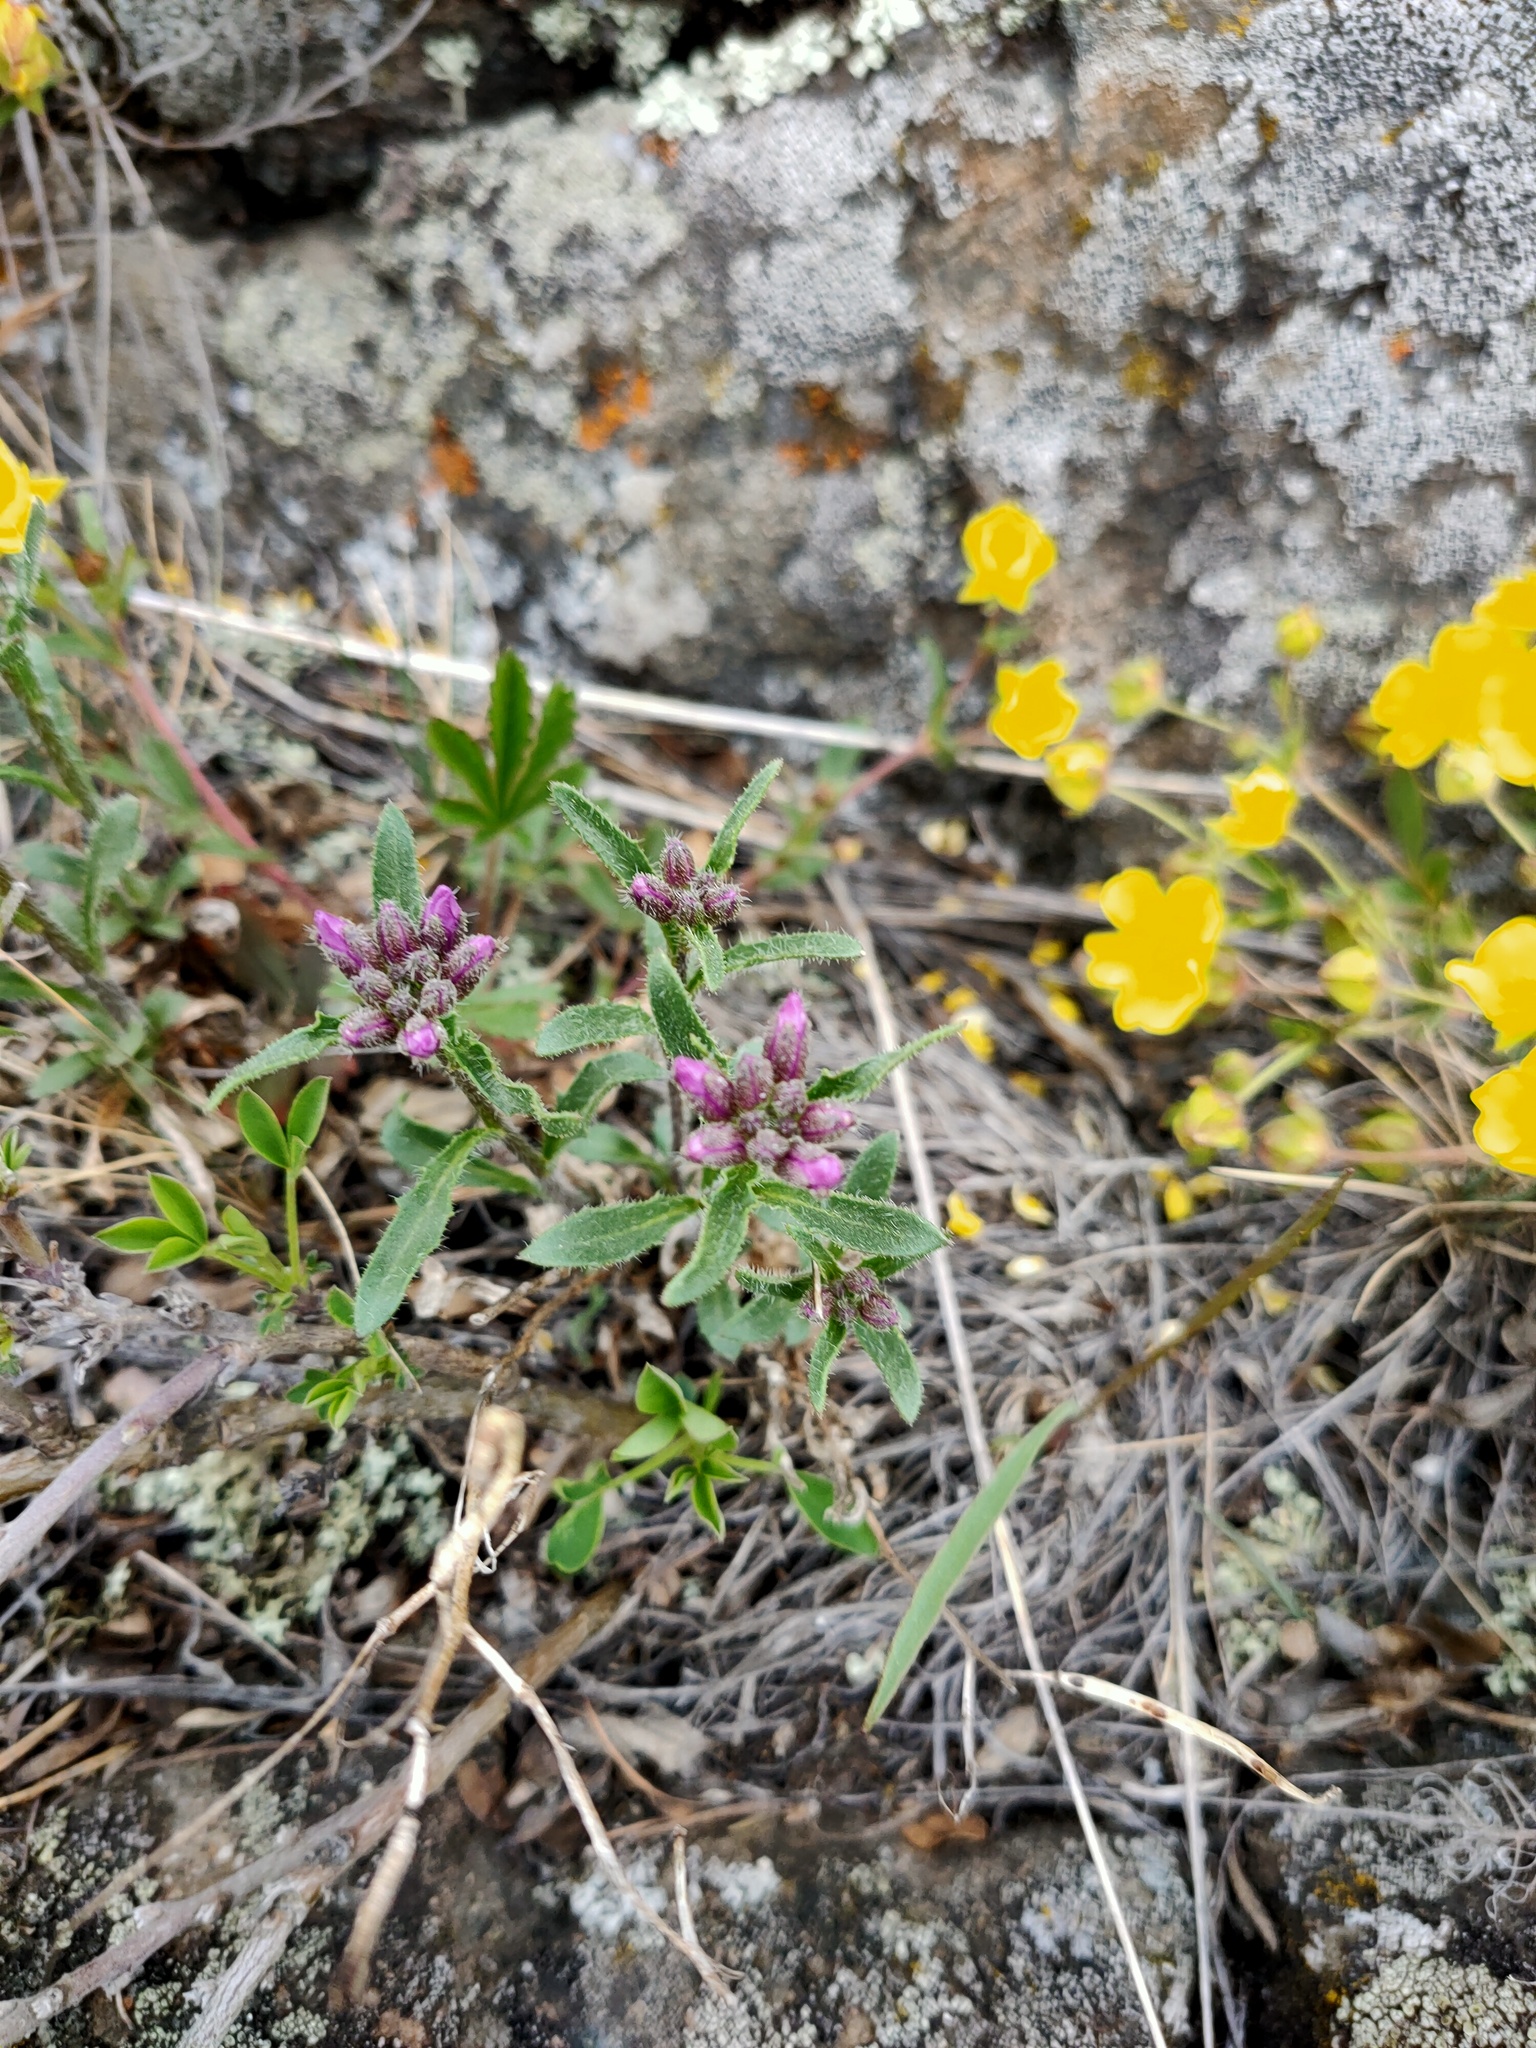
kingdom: Plantae
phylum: Tracheophyta
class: Magnoliopsida
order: Brassicales
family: Brassicaceae
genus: Clausia
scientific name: Clausia aprica
